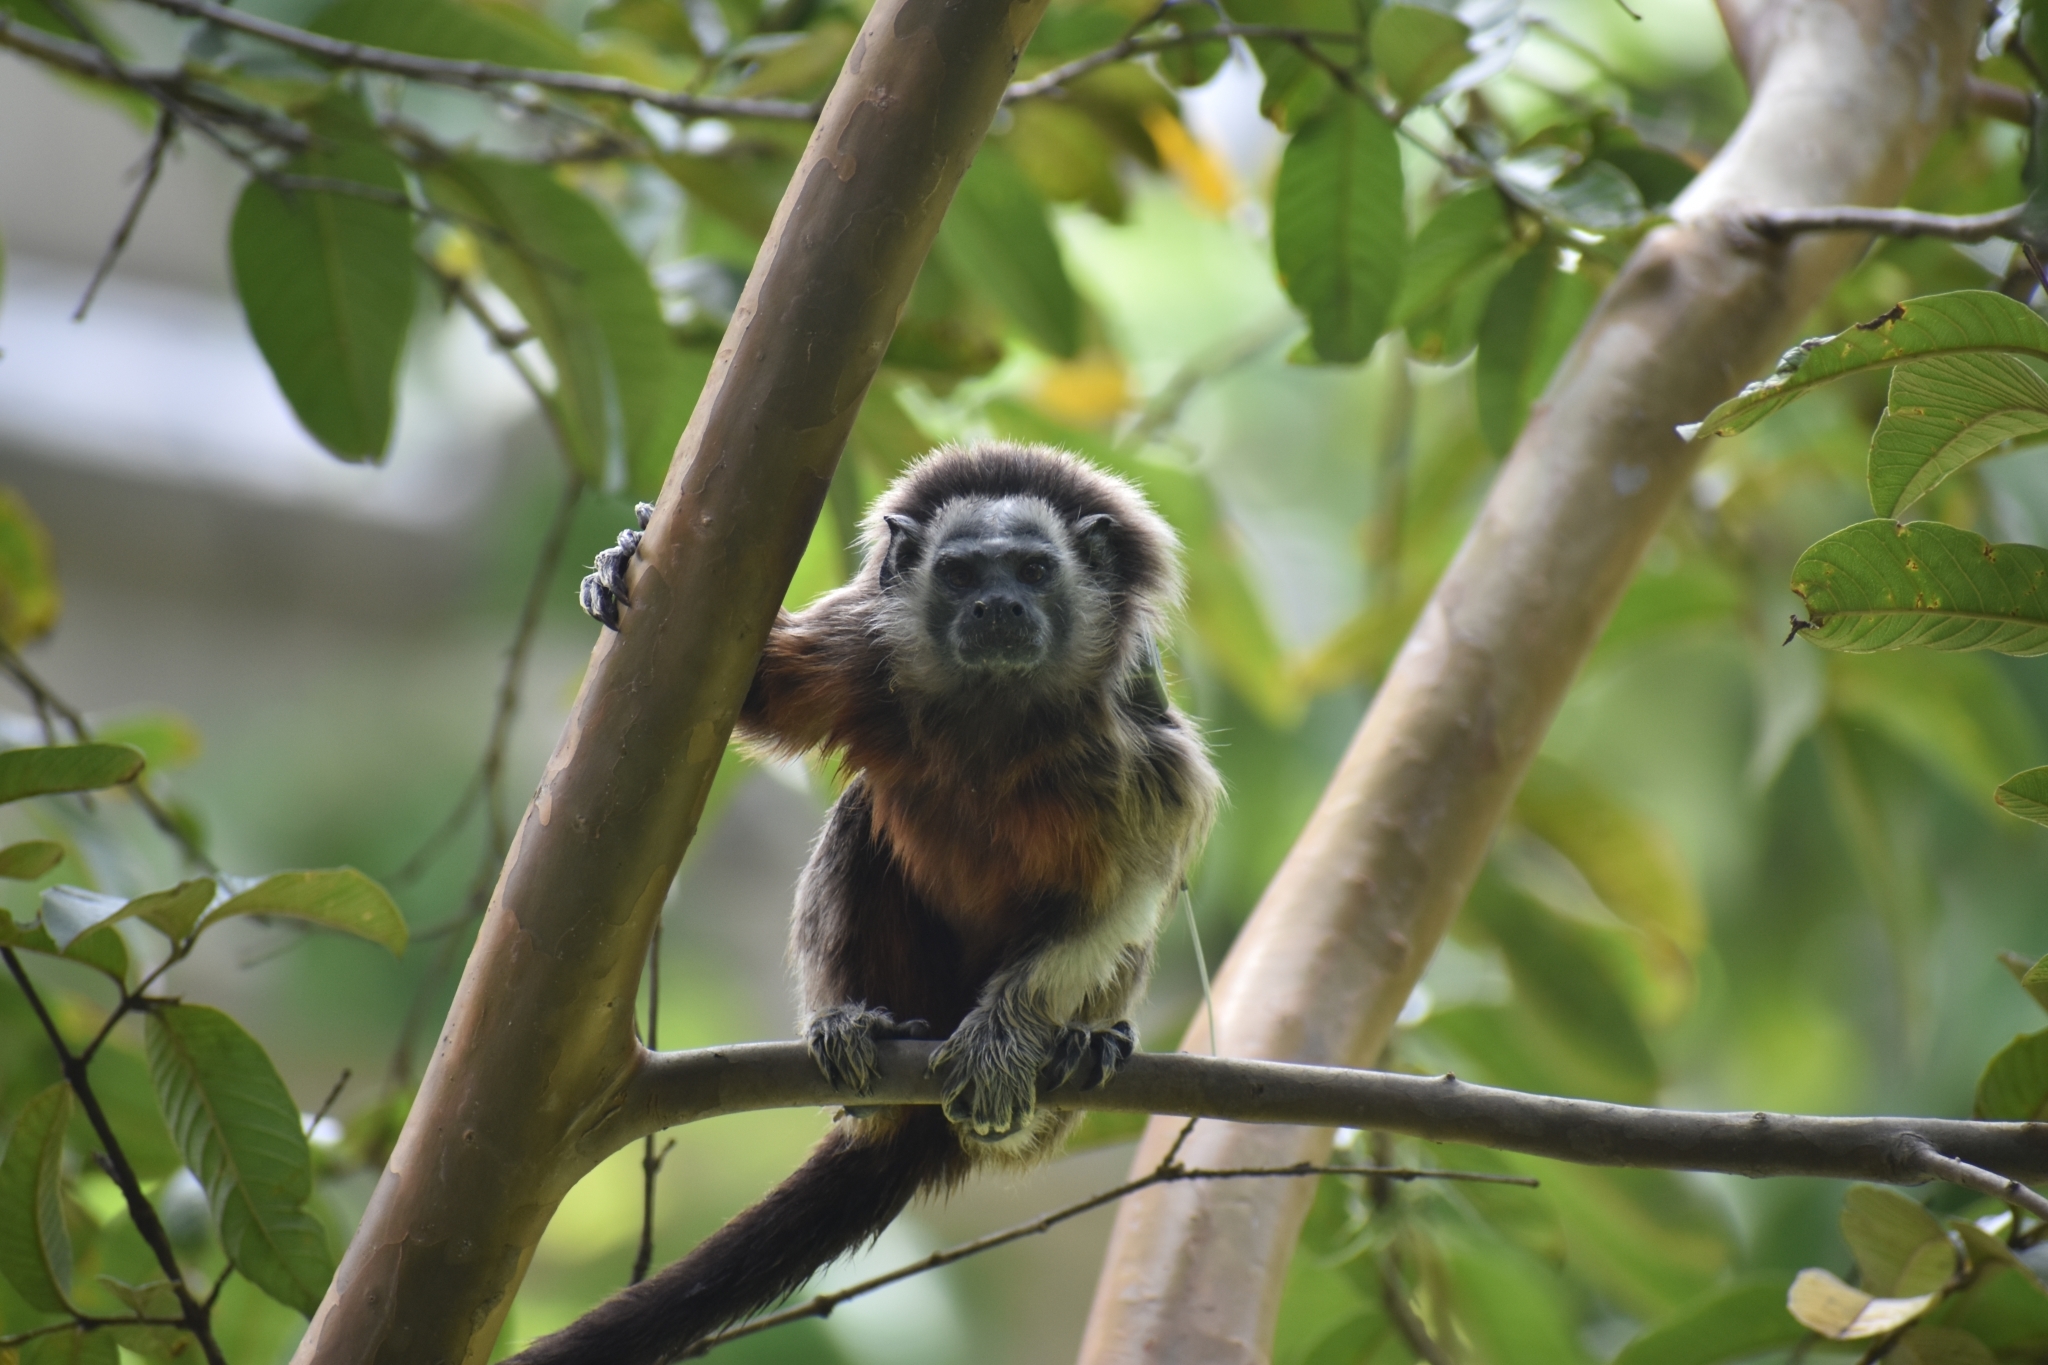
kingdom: Animalia
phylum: Chordata
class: Mammalia
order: Primates
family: Callitrichidae
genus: Saguinus
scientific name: Saguinus leucopus
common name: White-footed tamarin
